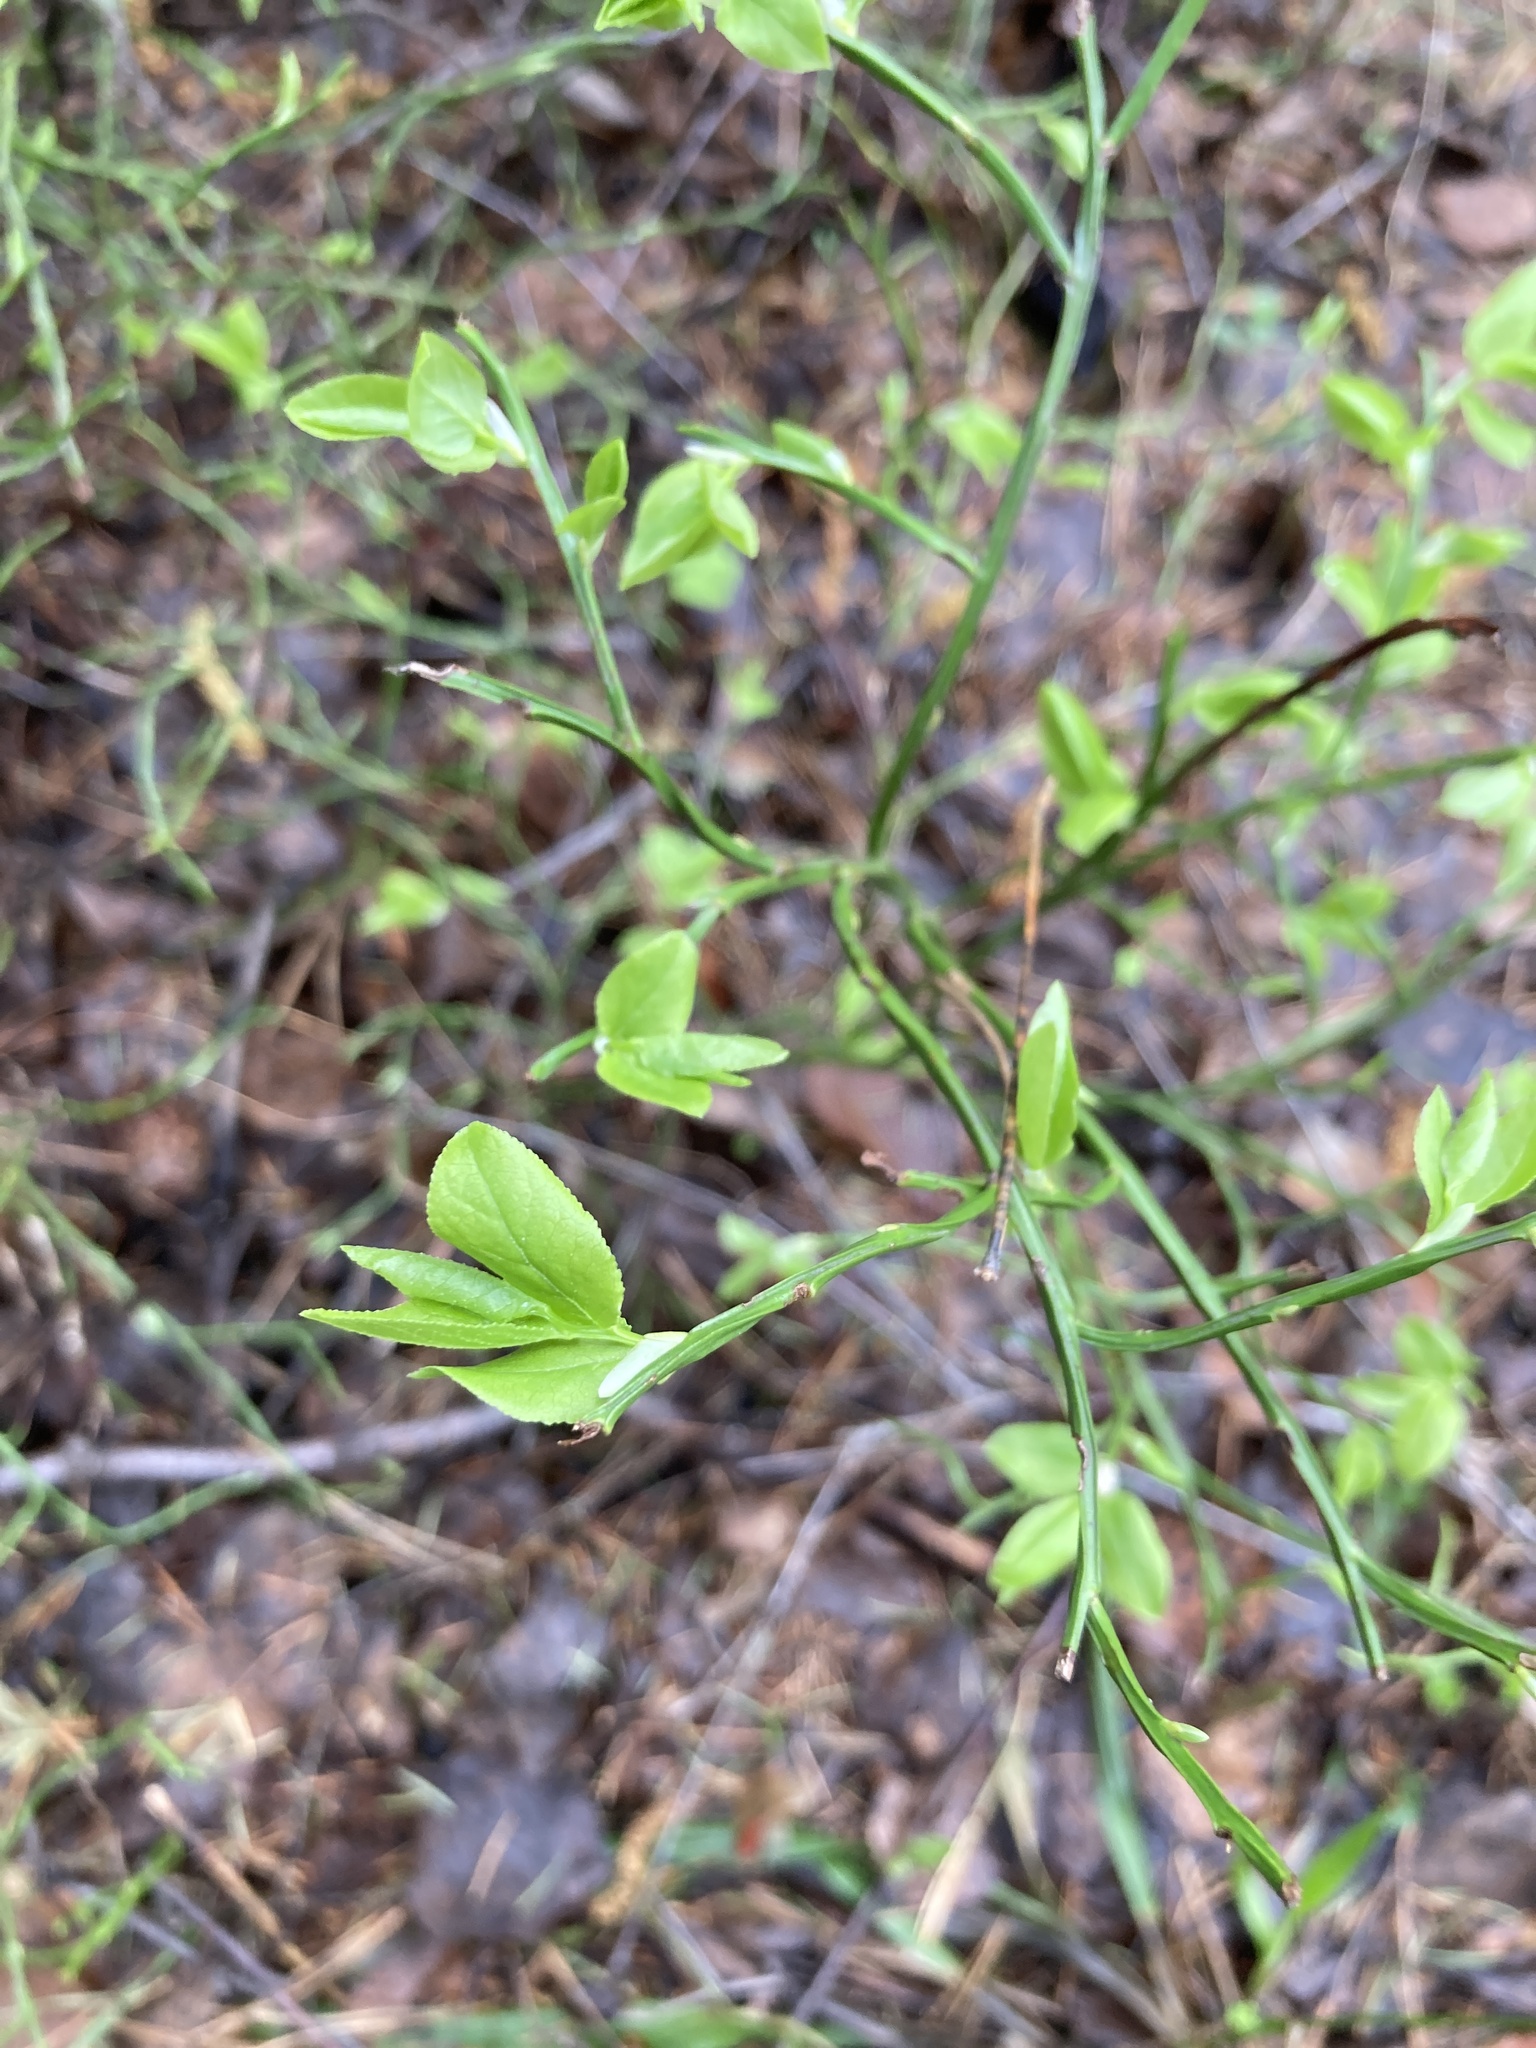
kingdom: Plantae
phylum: Tracheophyta
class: Magnoliopsida
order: Ericales
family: Ericaceae
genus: Vaccinium
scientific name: Vaccinium myrtillus
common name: Bilberry
